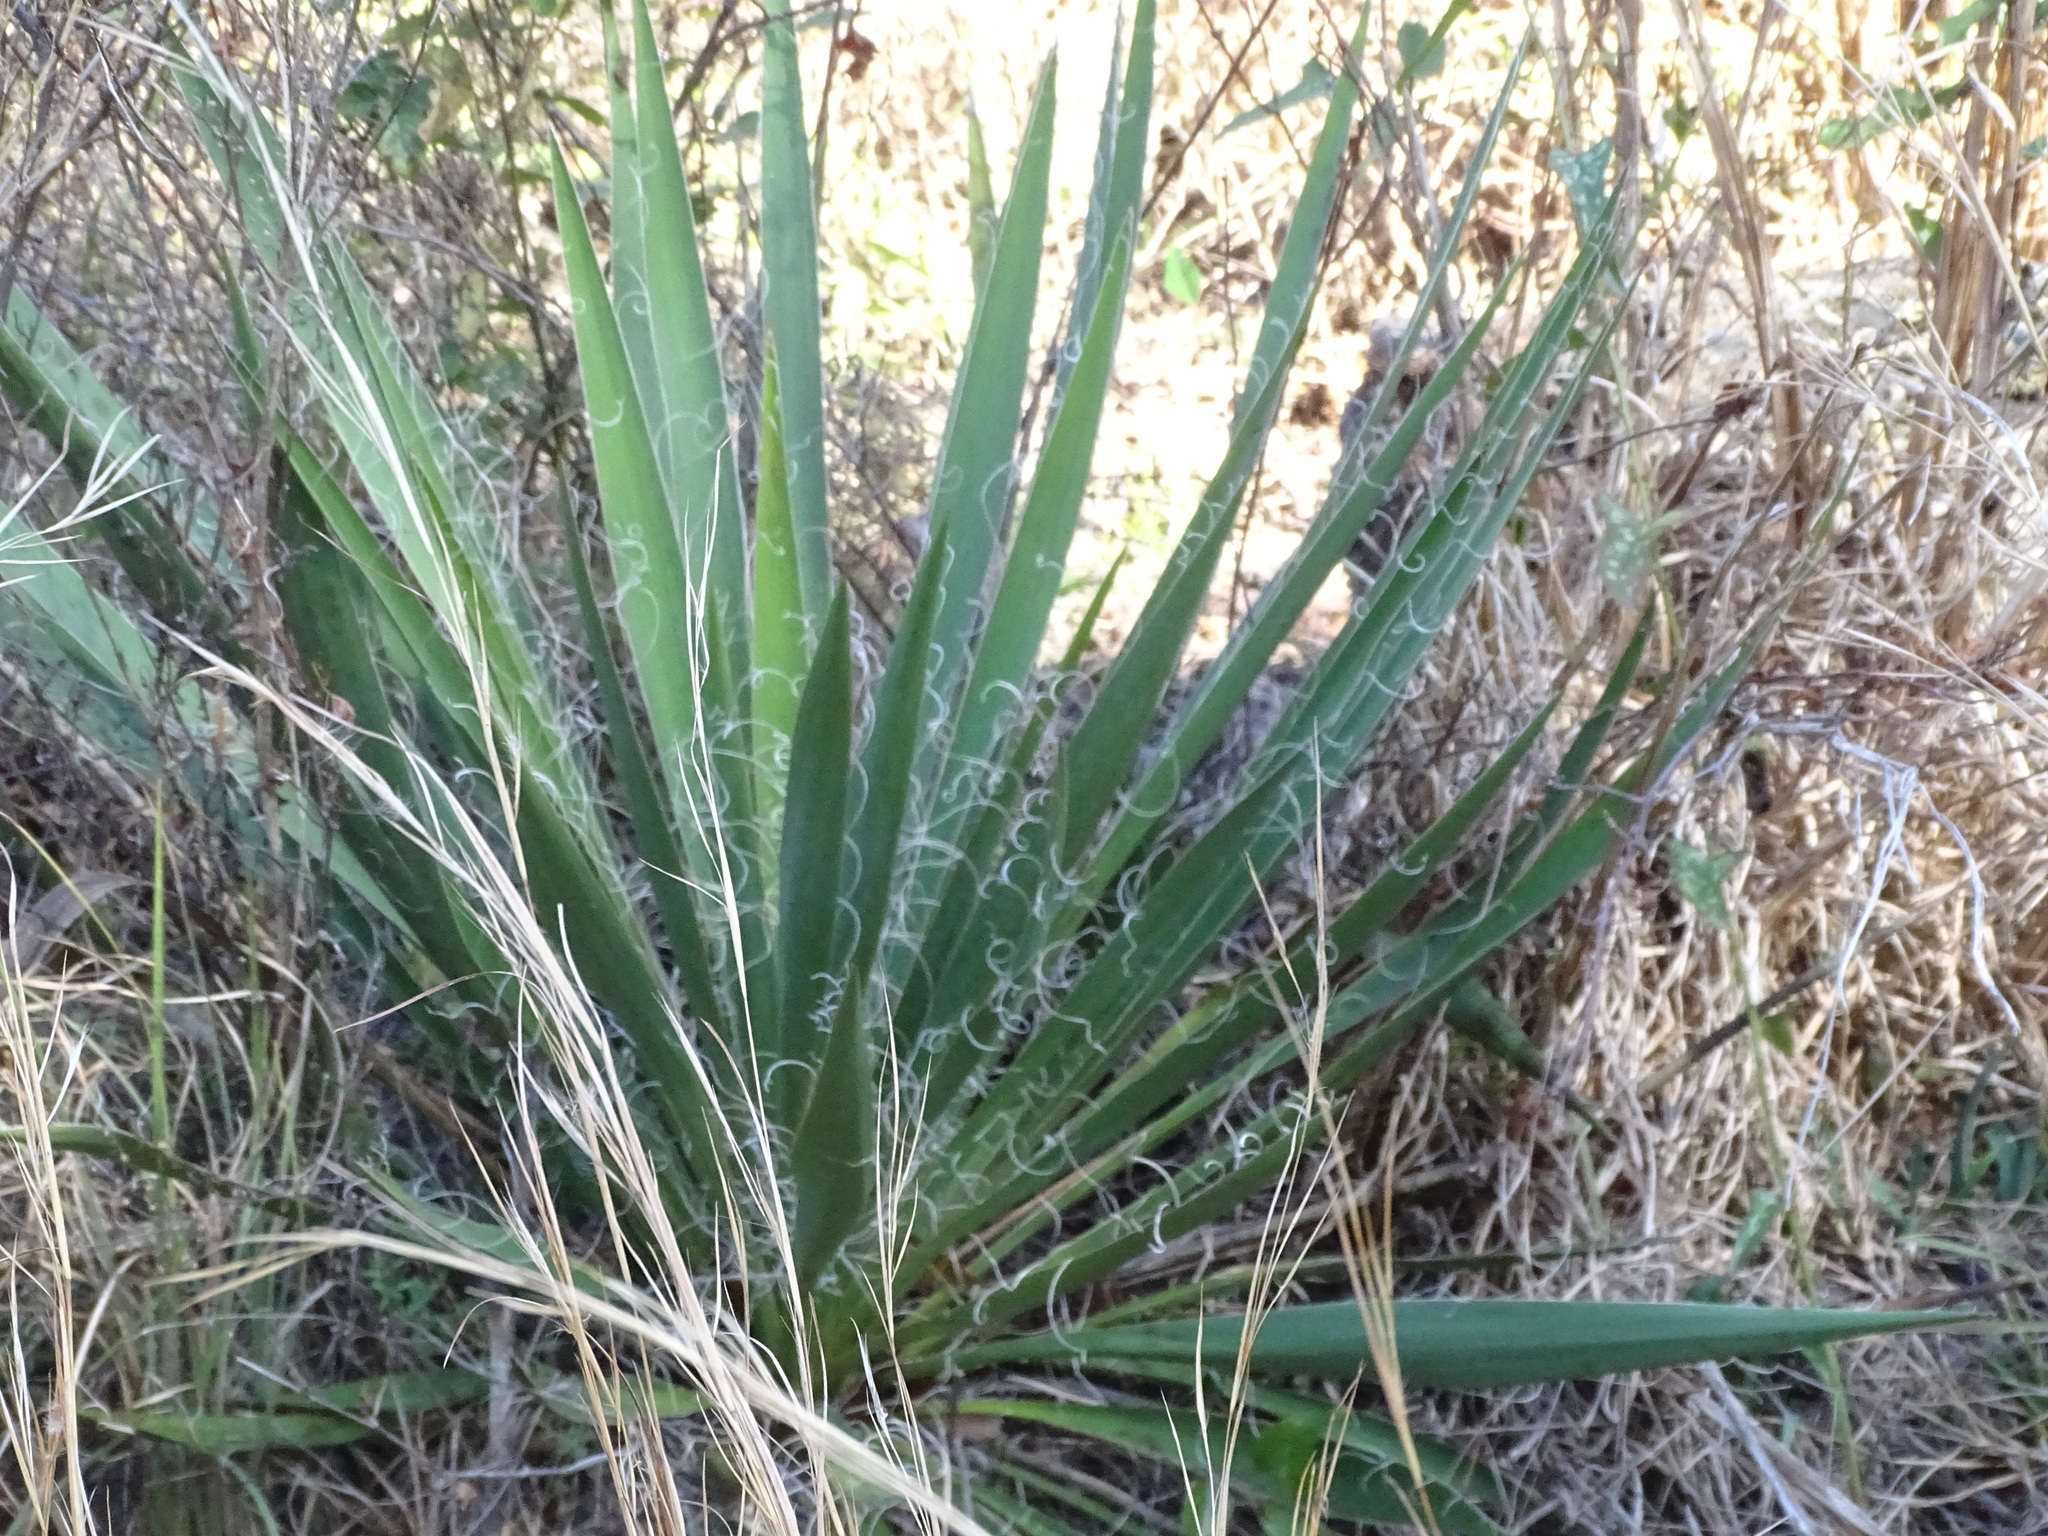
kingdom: Plantae
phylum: Tracheophyta
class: Liliopsida
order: Asparagales
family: Asparagaceae
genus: Yucca
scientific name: Yucca filamentosa
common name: Adam's-needle
